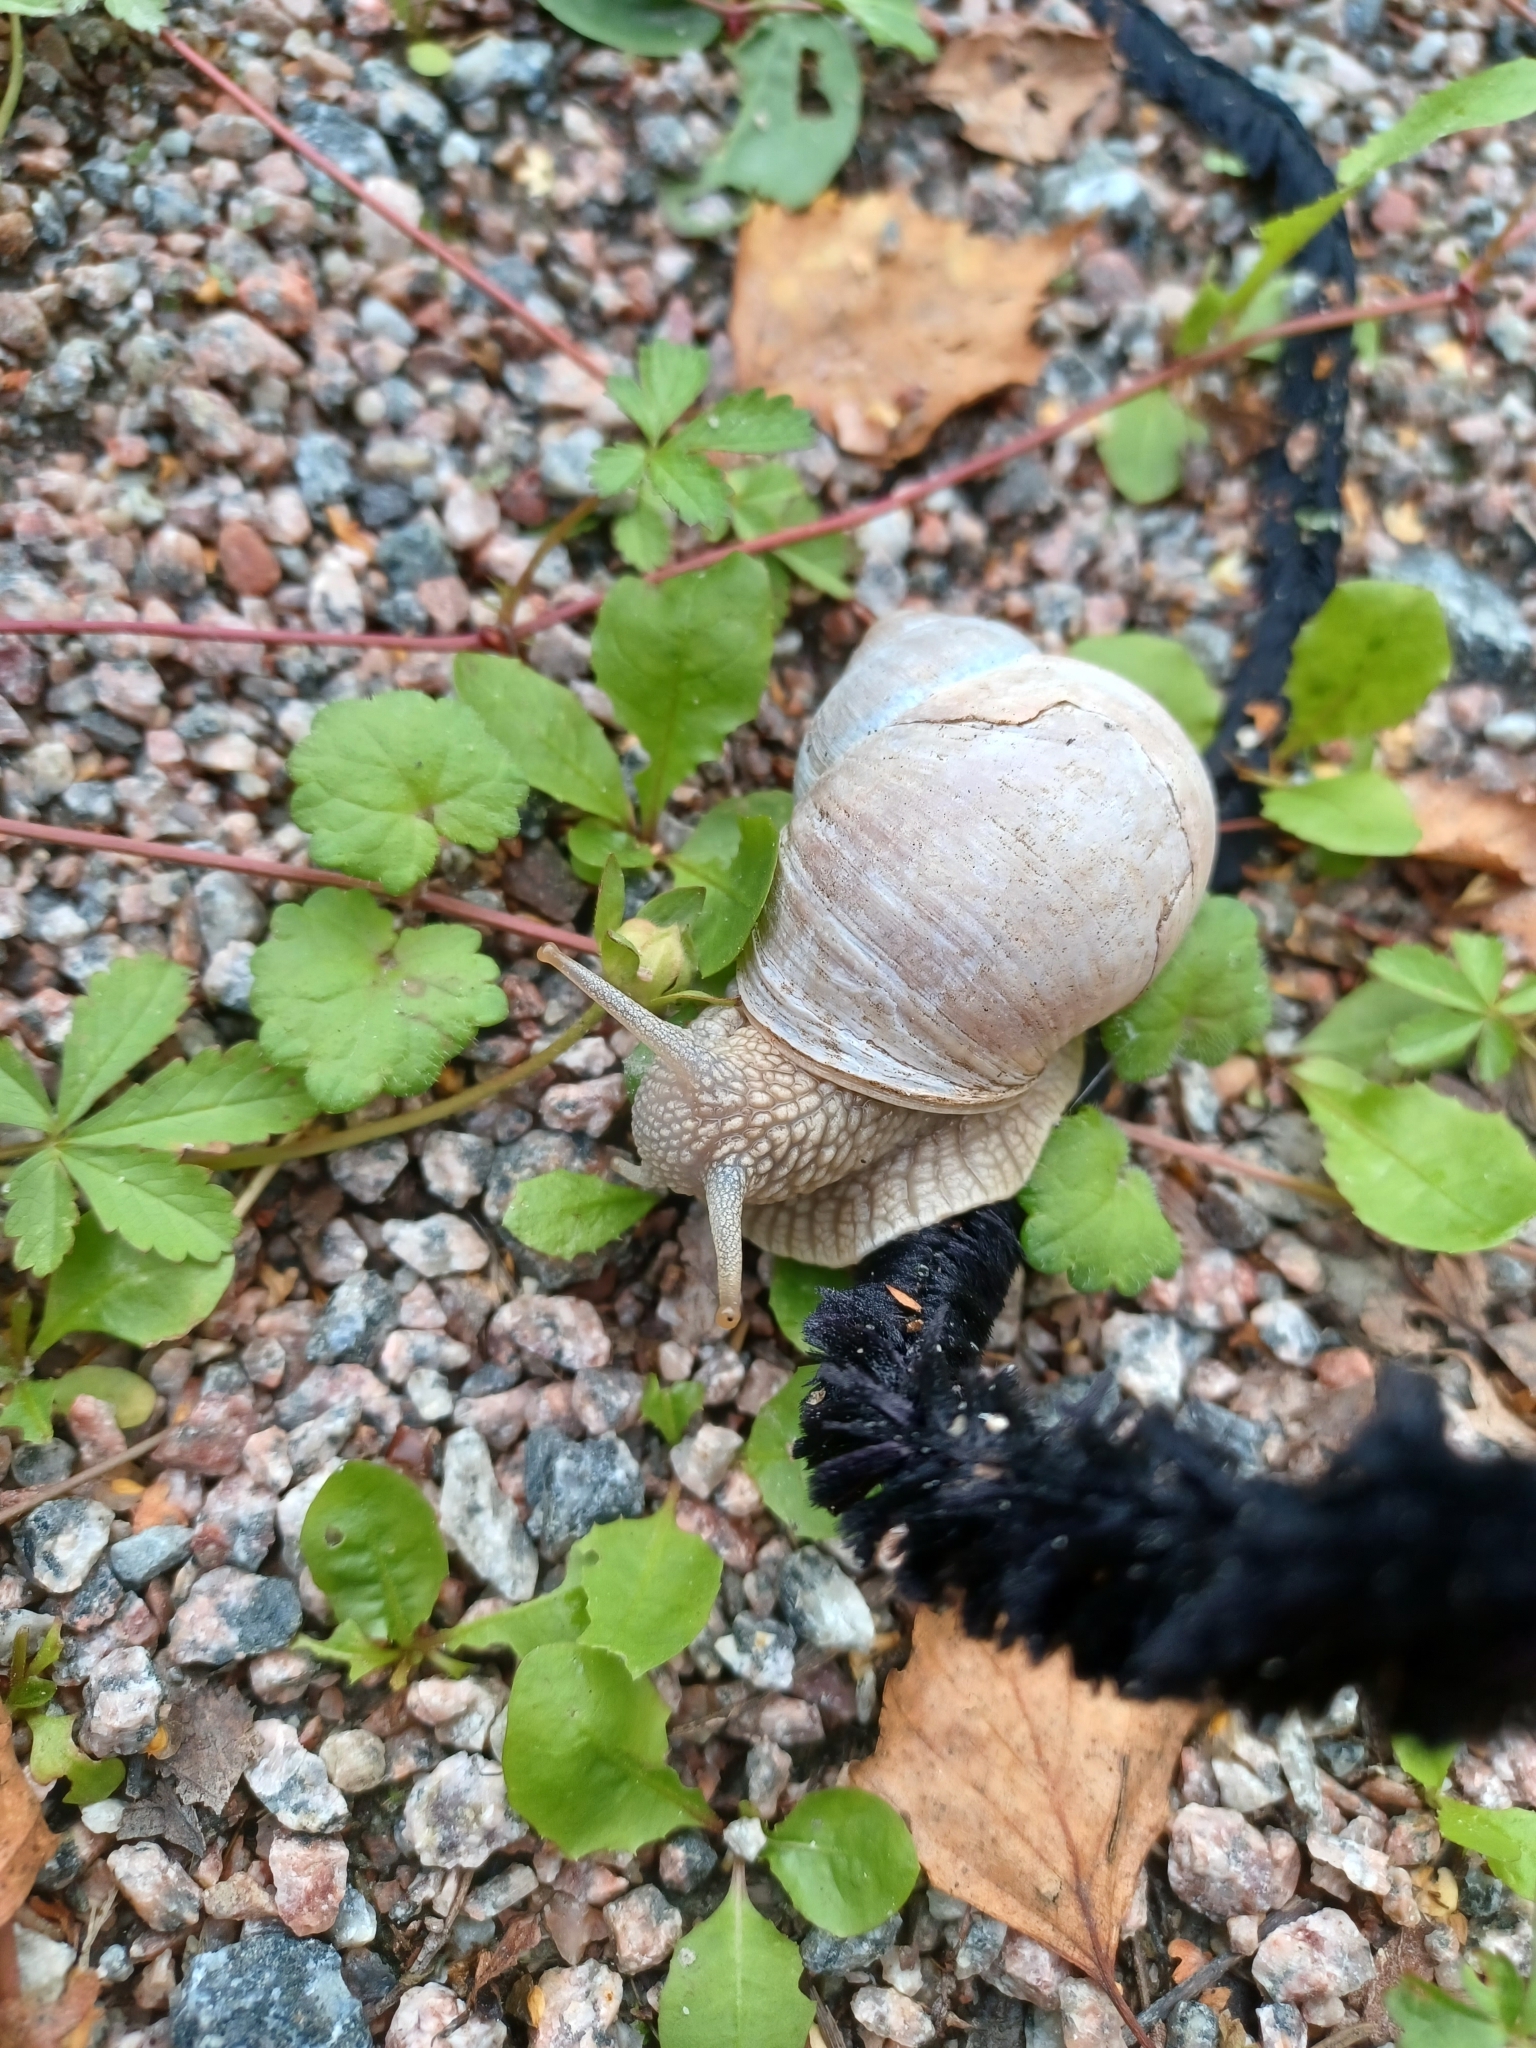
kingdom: Animalia
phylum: Mollusca
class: Gastropoda
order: Stylommatophora
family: Helicidae
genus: Helix
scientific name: Helix pomatia
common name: Roman snail
